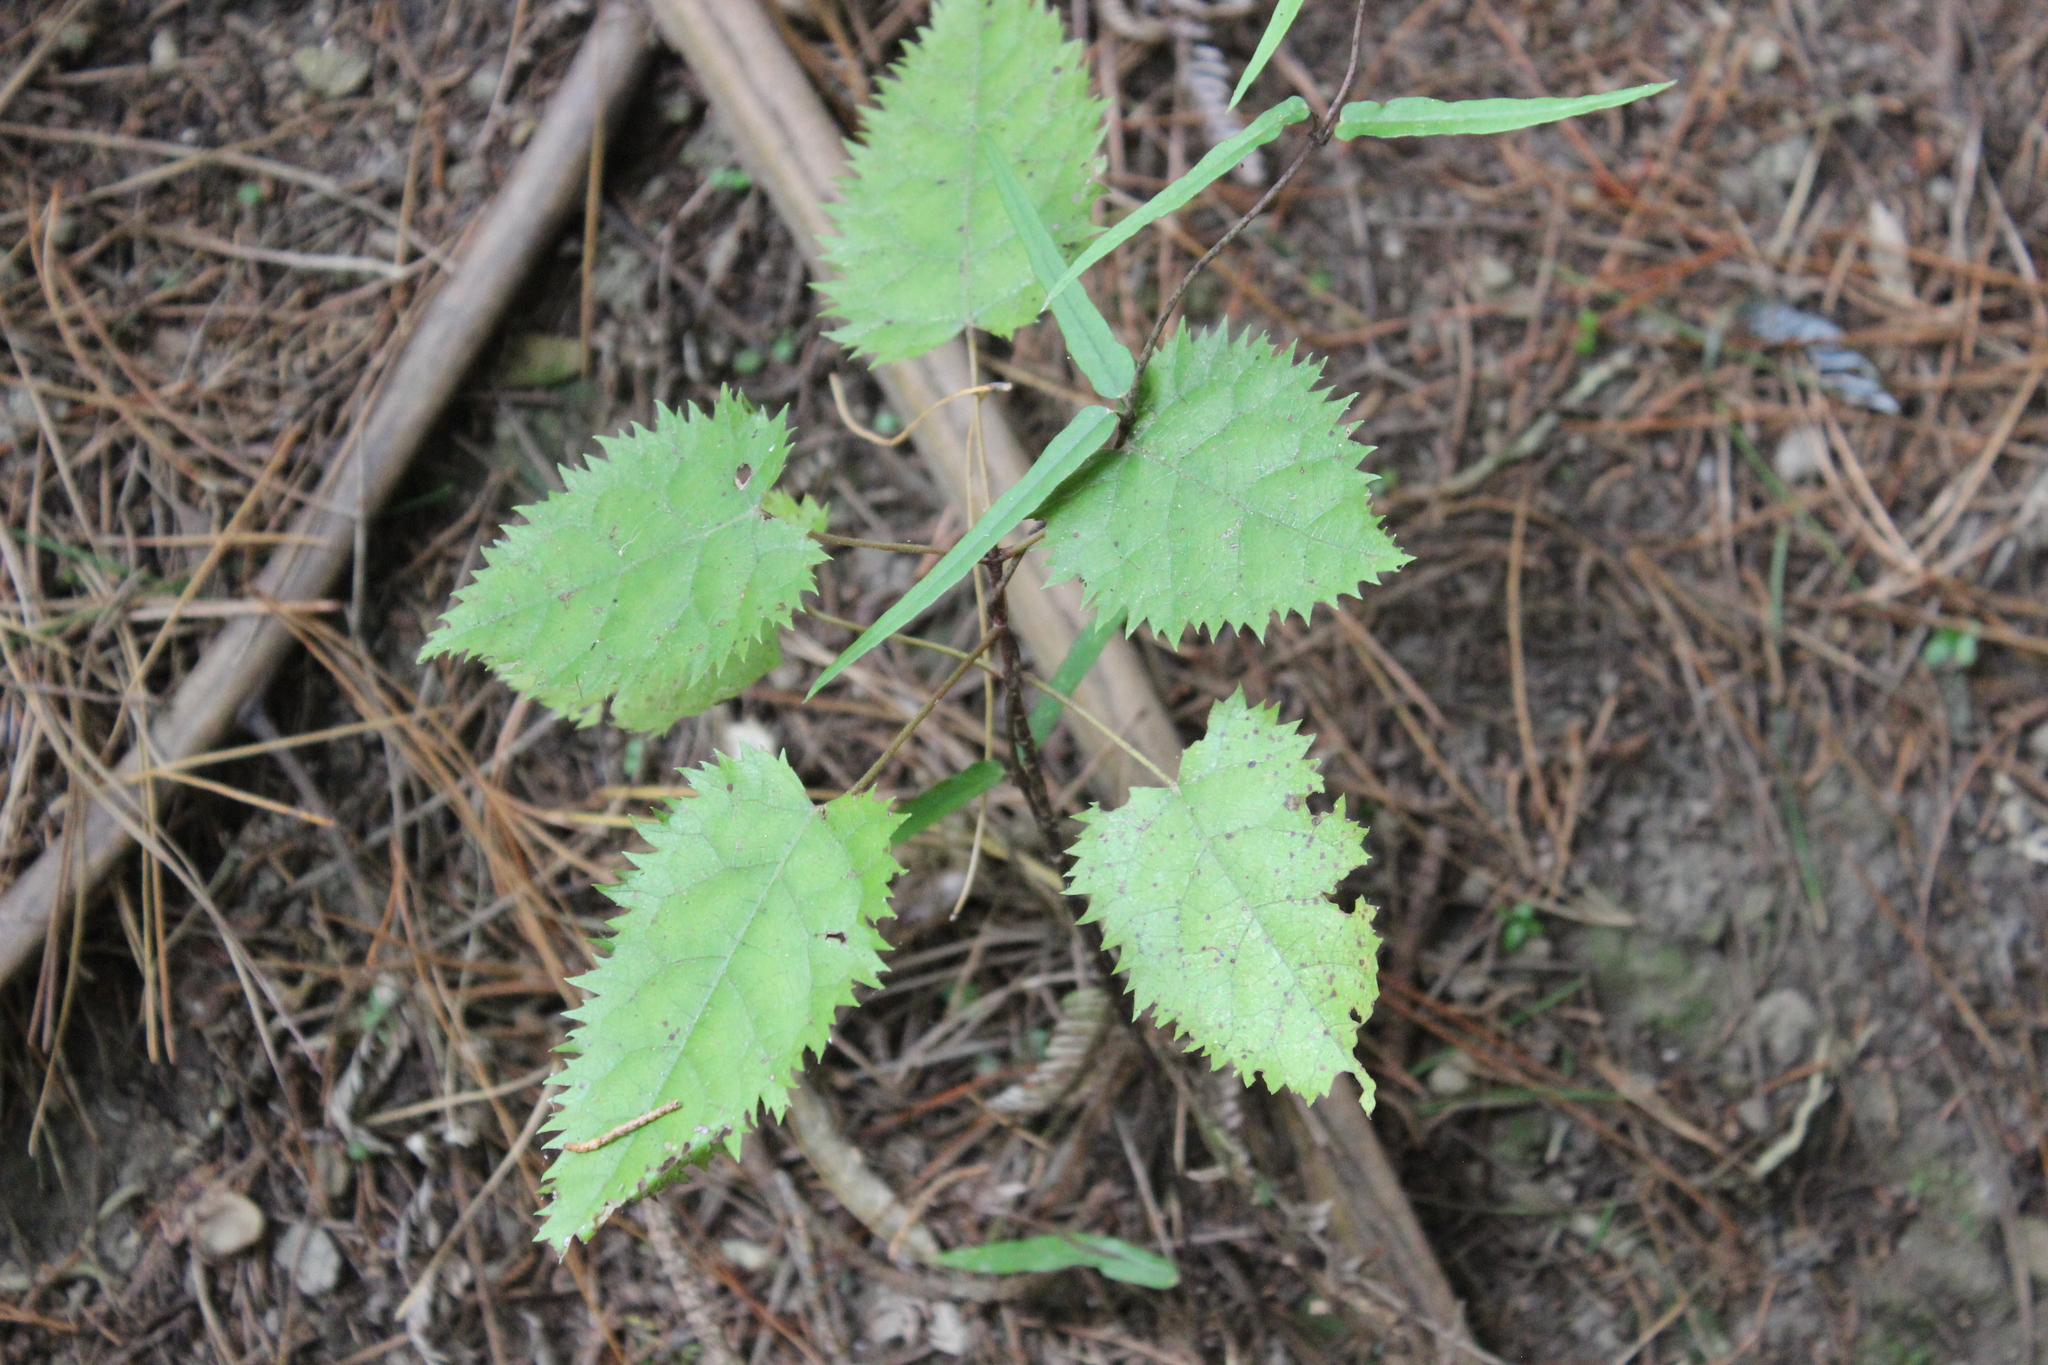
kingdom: Plantae
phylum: Tracheophyta
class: Magnoliopsida
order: Oxalidales
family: Elaeocarpaceae
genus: Aristotelia
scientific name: Aristotelia serrata
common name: New zealand wineberry
